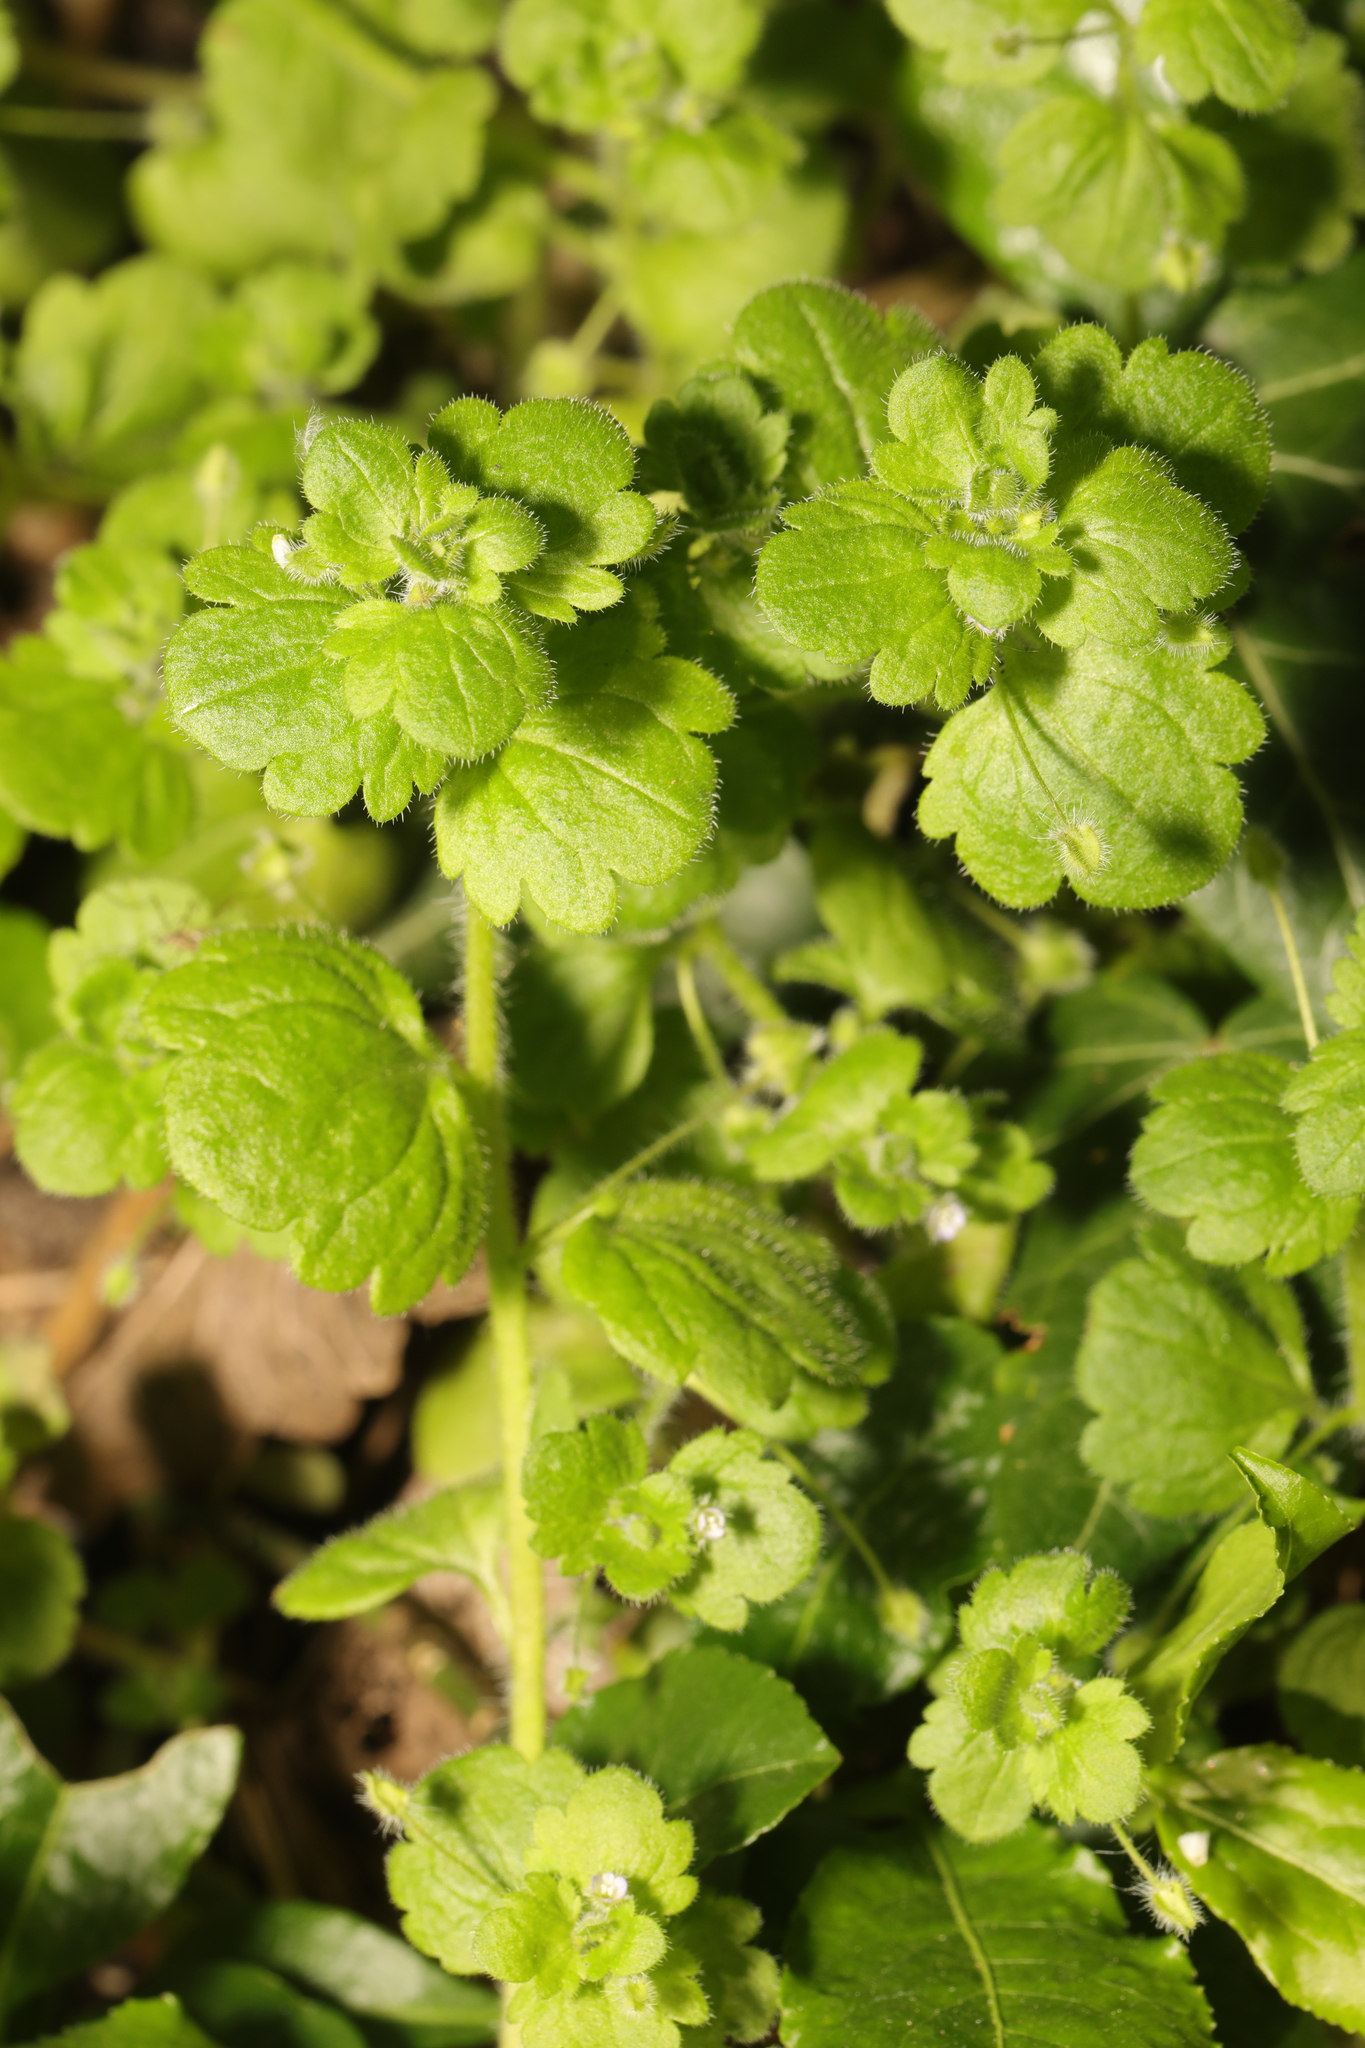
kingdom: Plantae
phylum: Tracheophyta
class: Magnoliopsida
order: Lamiales
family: Plantaginaceae
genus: Veronica
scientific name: Veronica sublobata
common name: False ivy-leaved speedwell
